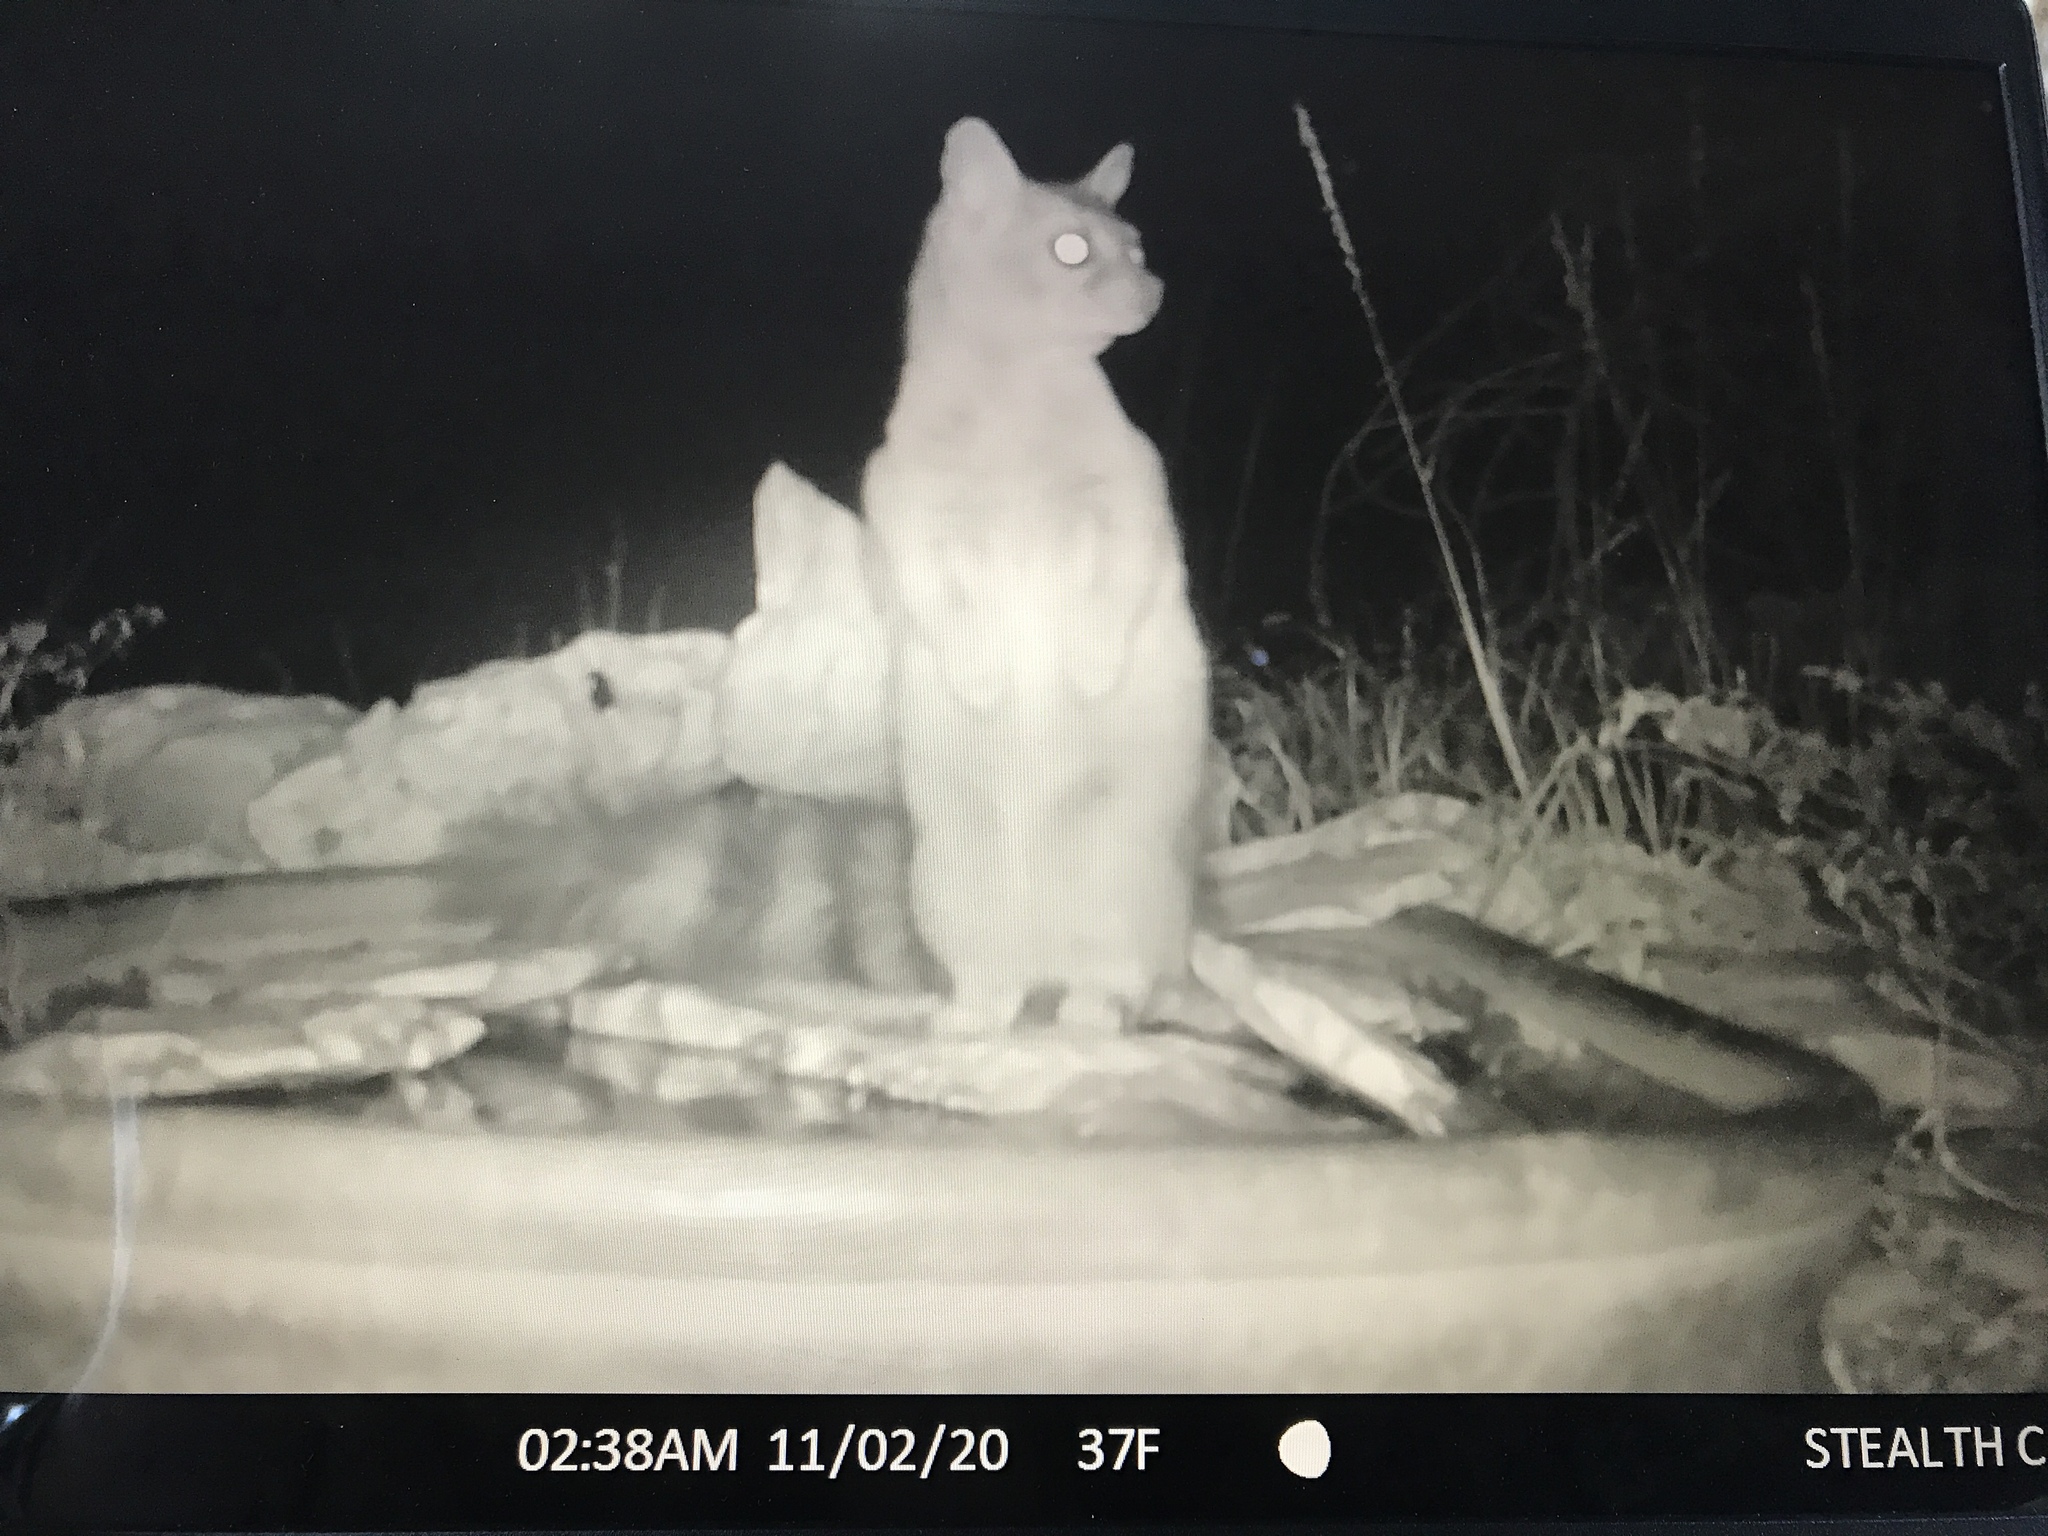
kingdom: Animalia
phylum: Chordata
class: Mammalia
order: Carnivora
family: Procyonidae
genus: Bassariscus
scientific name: Bassariscus astutus
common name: Ringtail
